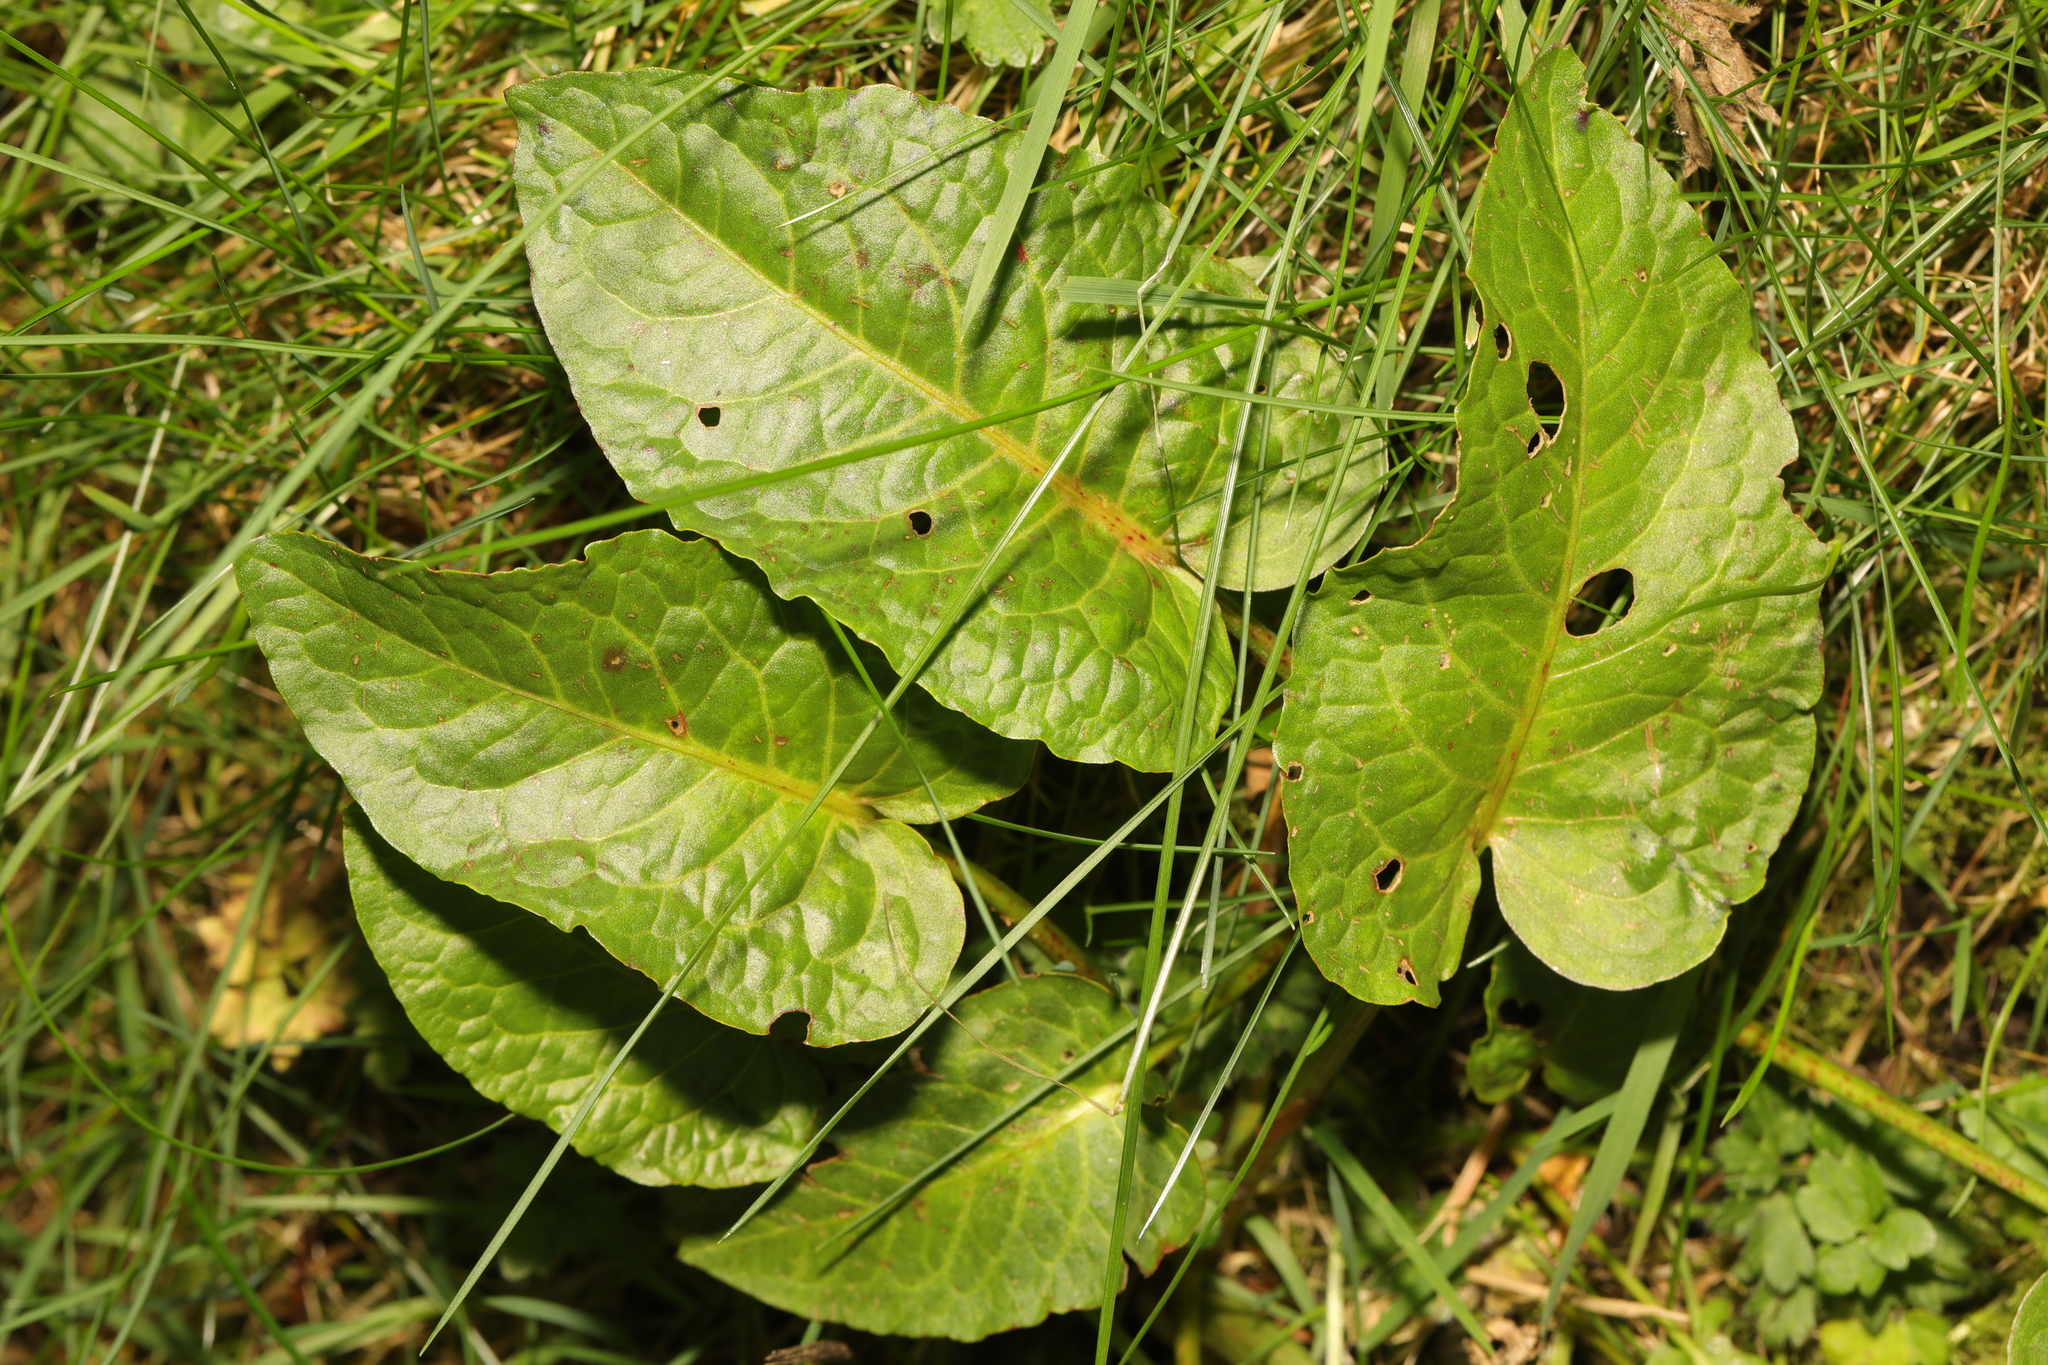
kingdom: Plantae
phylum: Tracheophyta
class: Magnoliopsida
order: Caryophyllales
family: Polygonaceae
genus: Rumex
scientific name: Rumex obtusifolius
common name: Bitter dock
